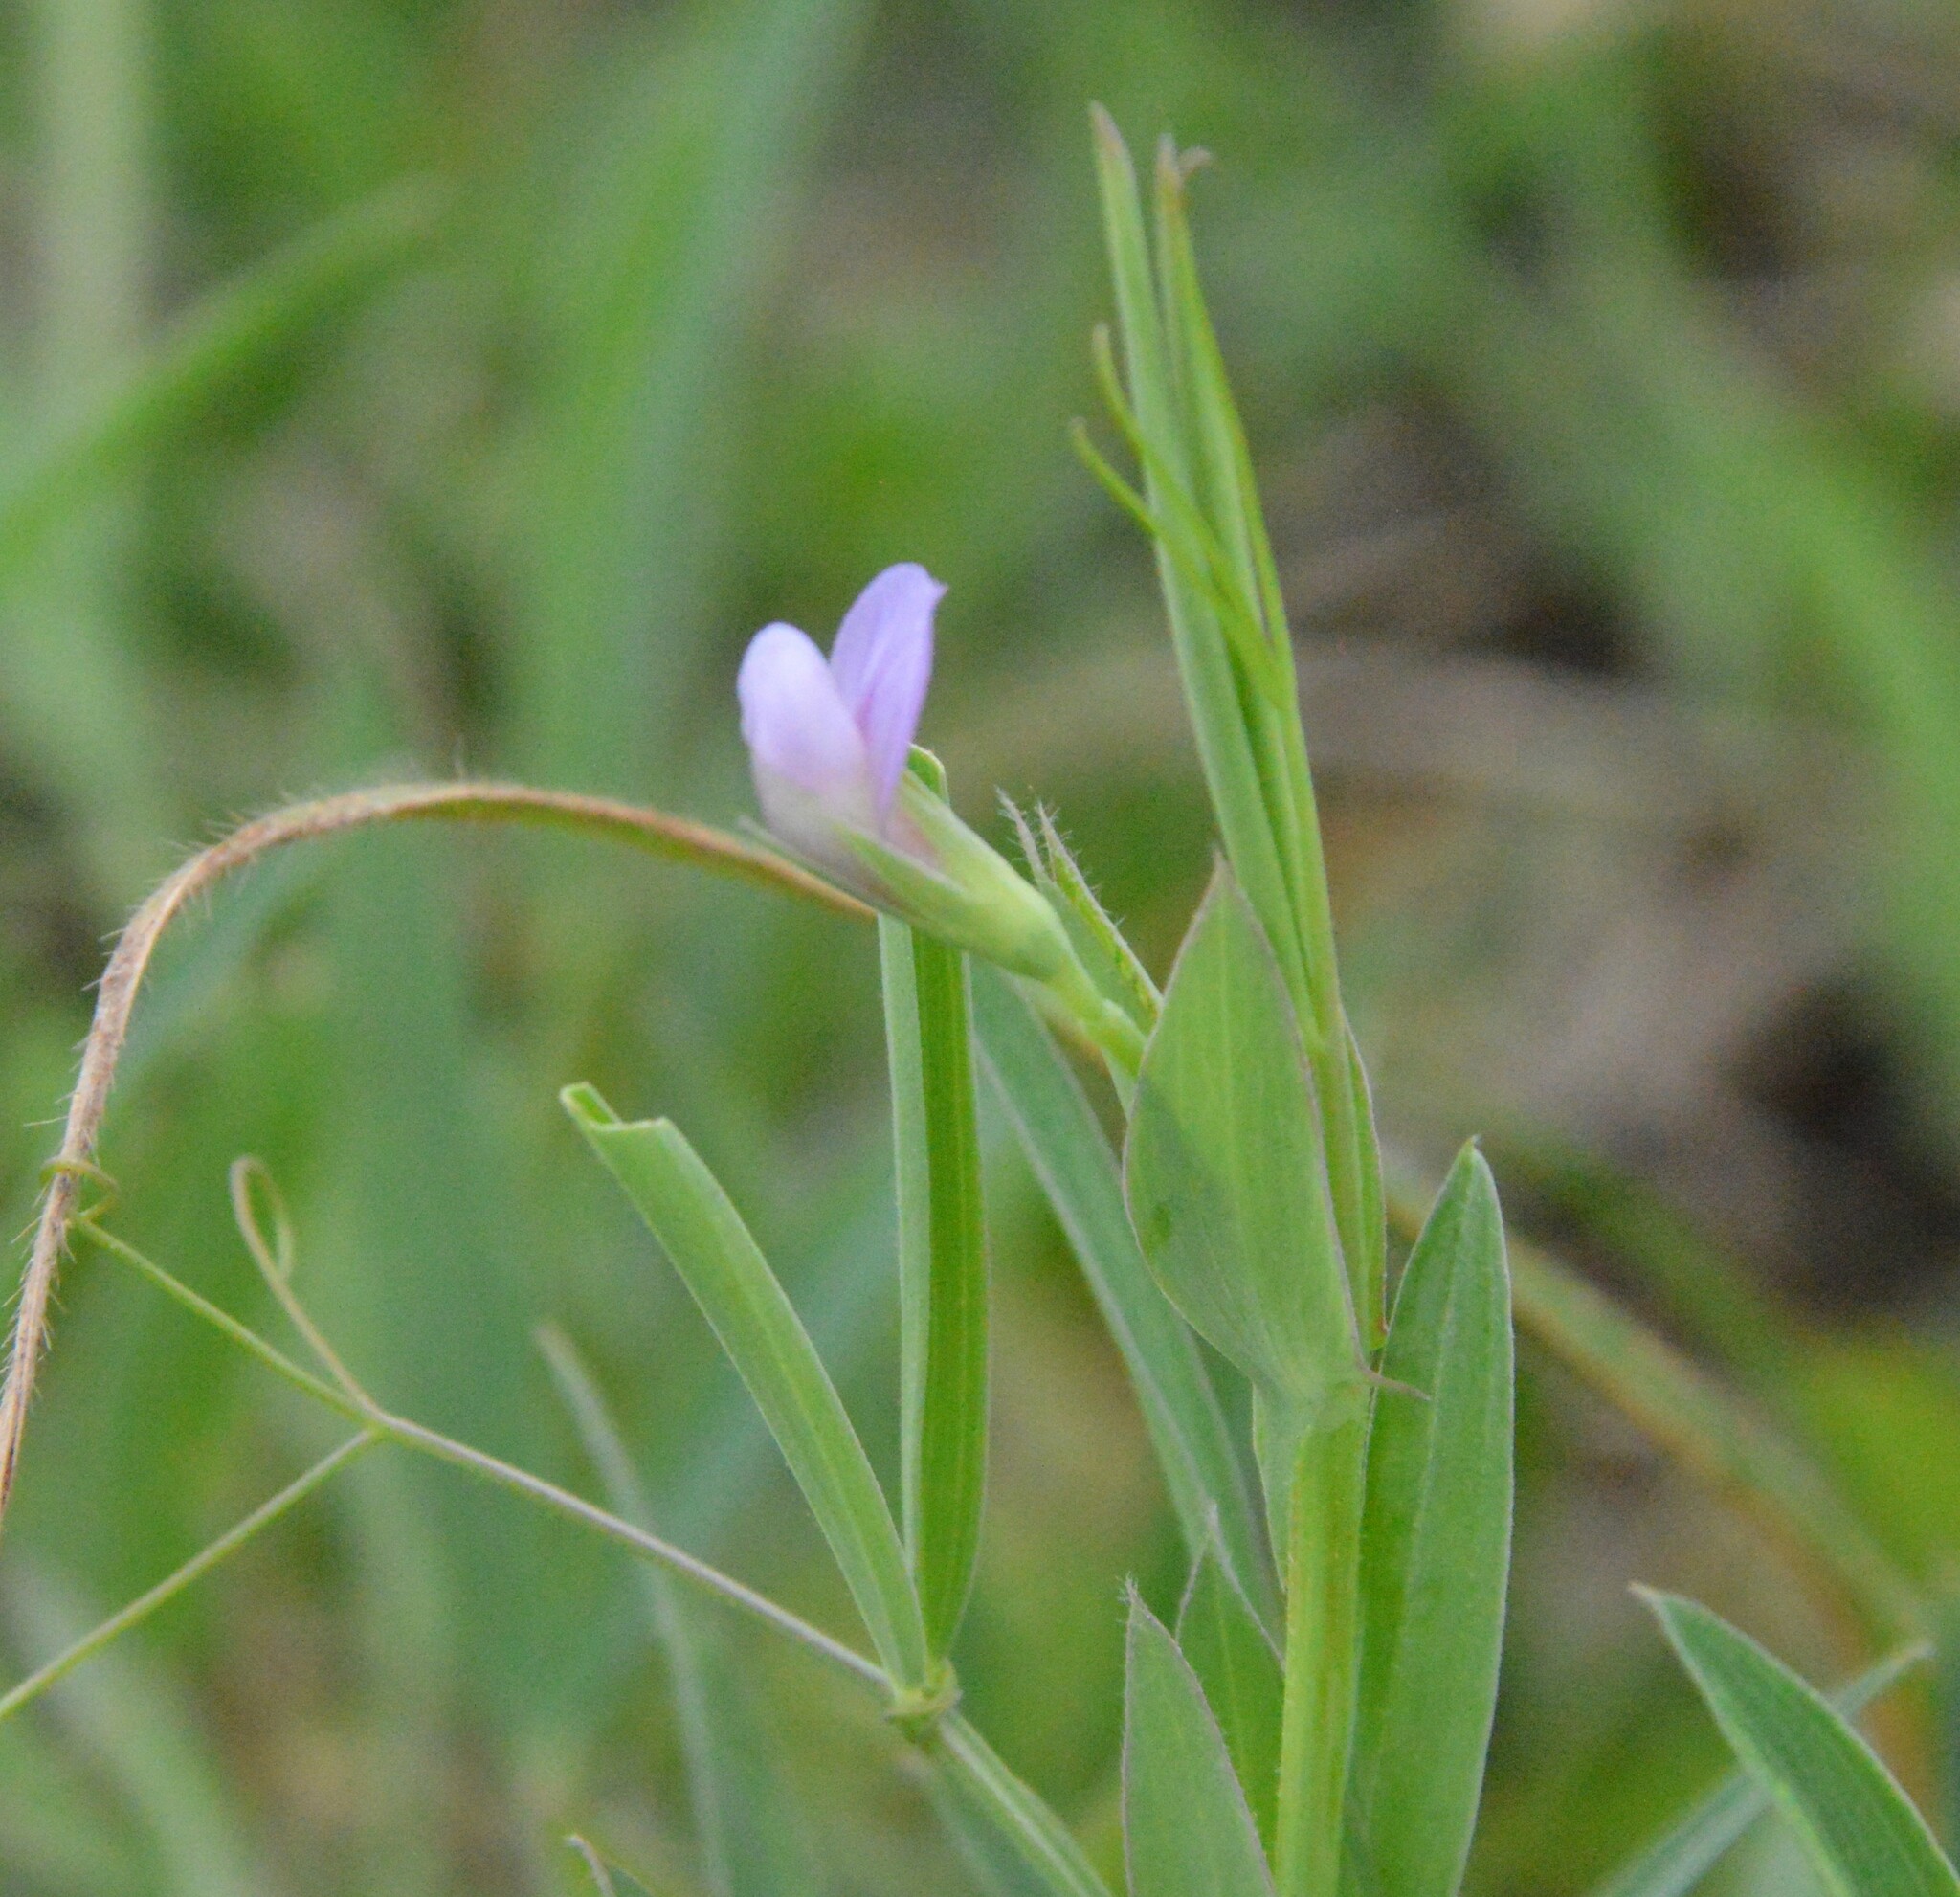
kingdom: Plantae
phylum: Tracheophyta
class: Magnoliopsida
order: Fabales
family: Fabaceae
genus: Lathyrus
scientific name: Lathyrus pusillus
